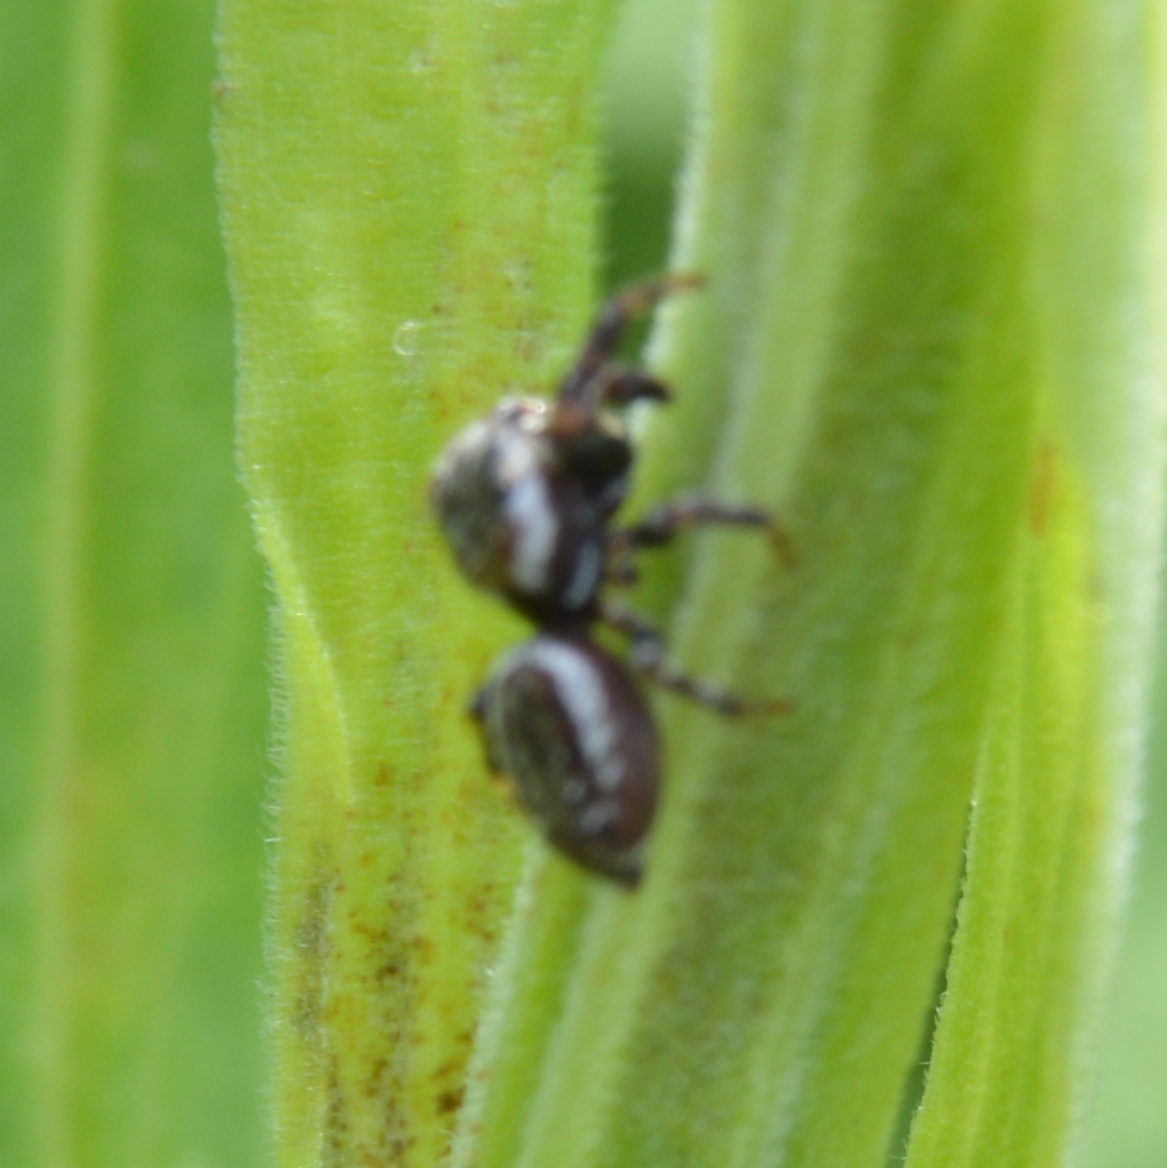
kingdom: Animalia
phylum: Arthropoda
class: Arachnida
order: Araneae
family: Salticidae
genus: Pelegrina
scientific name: Pelegrina
